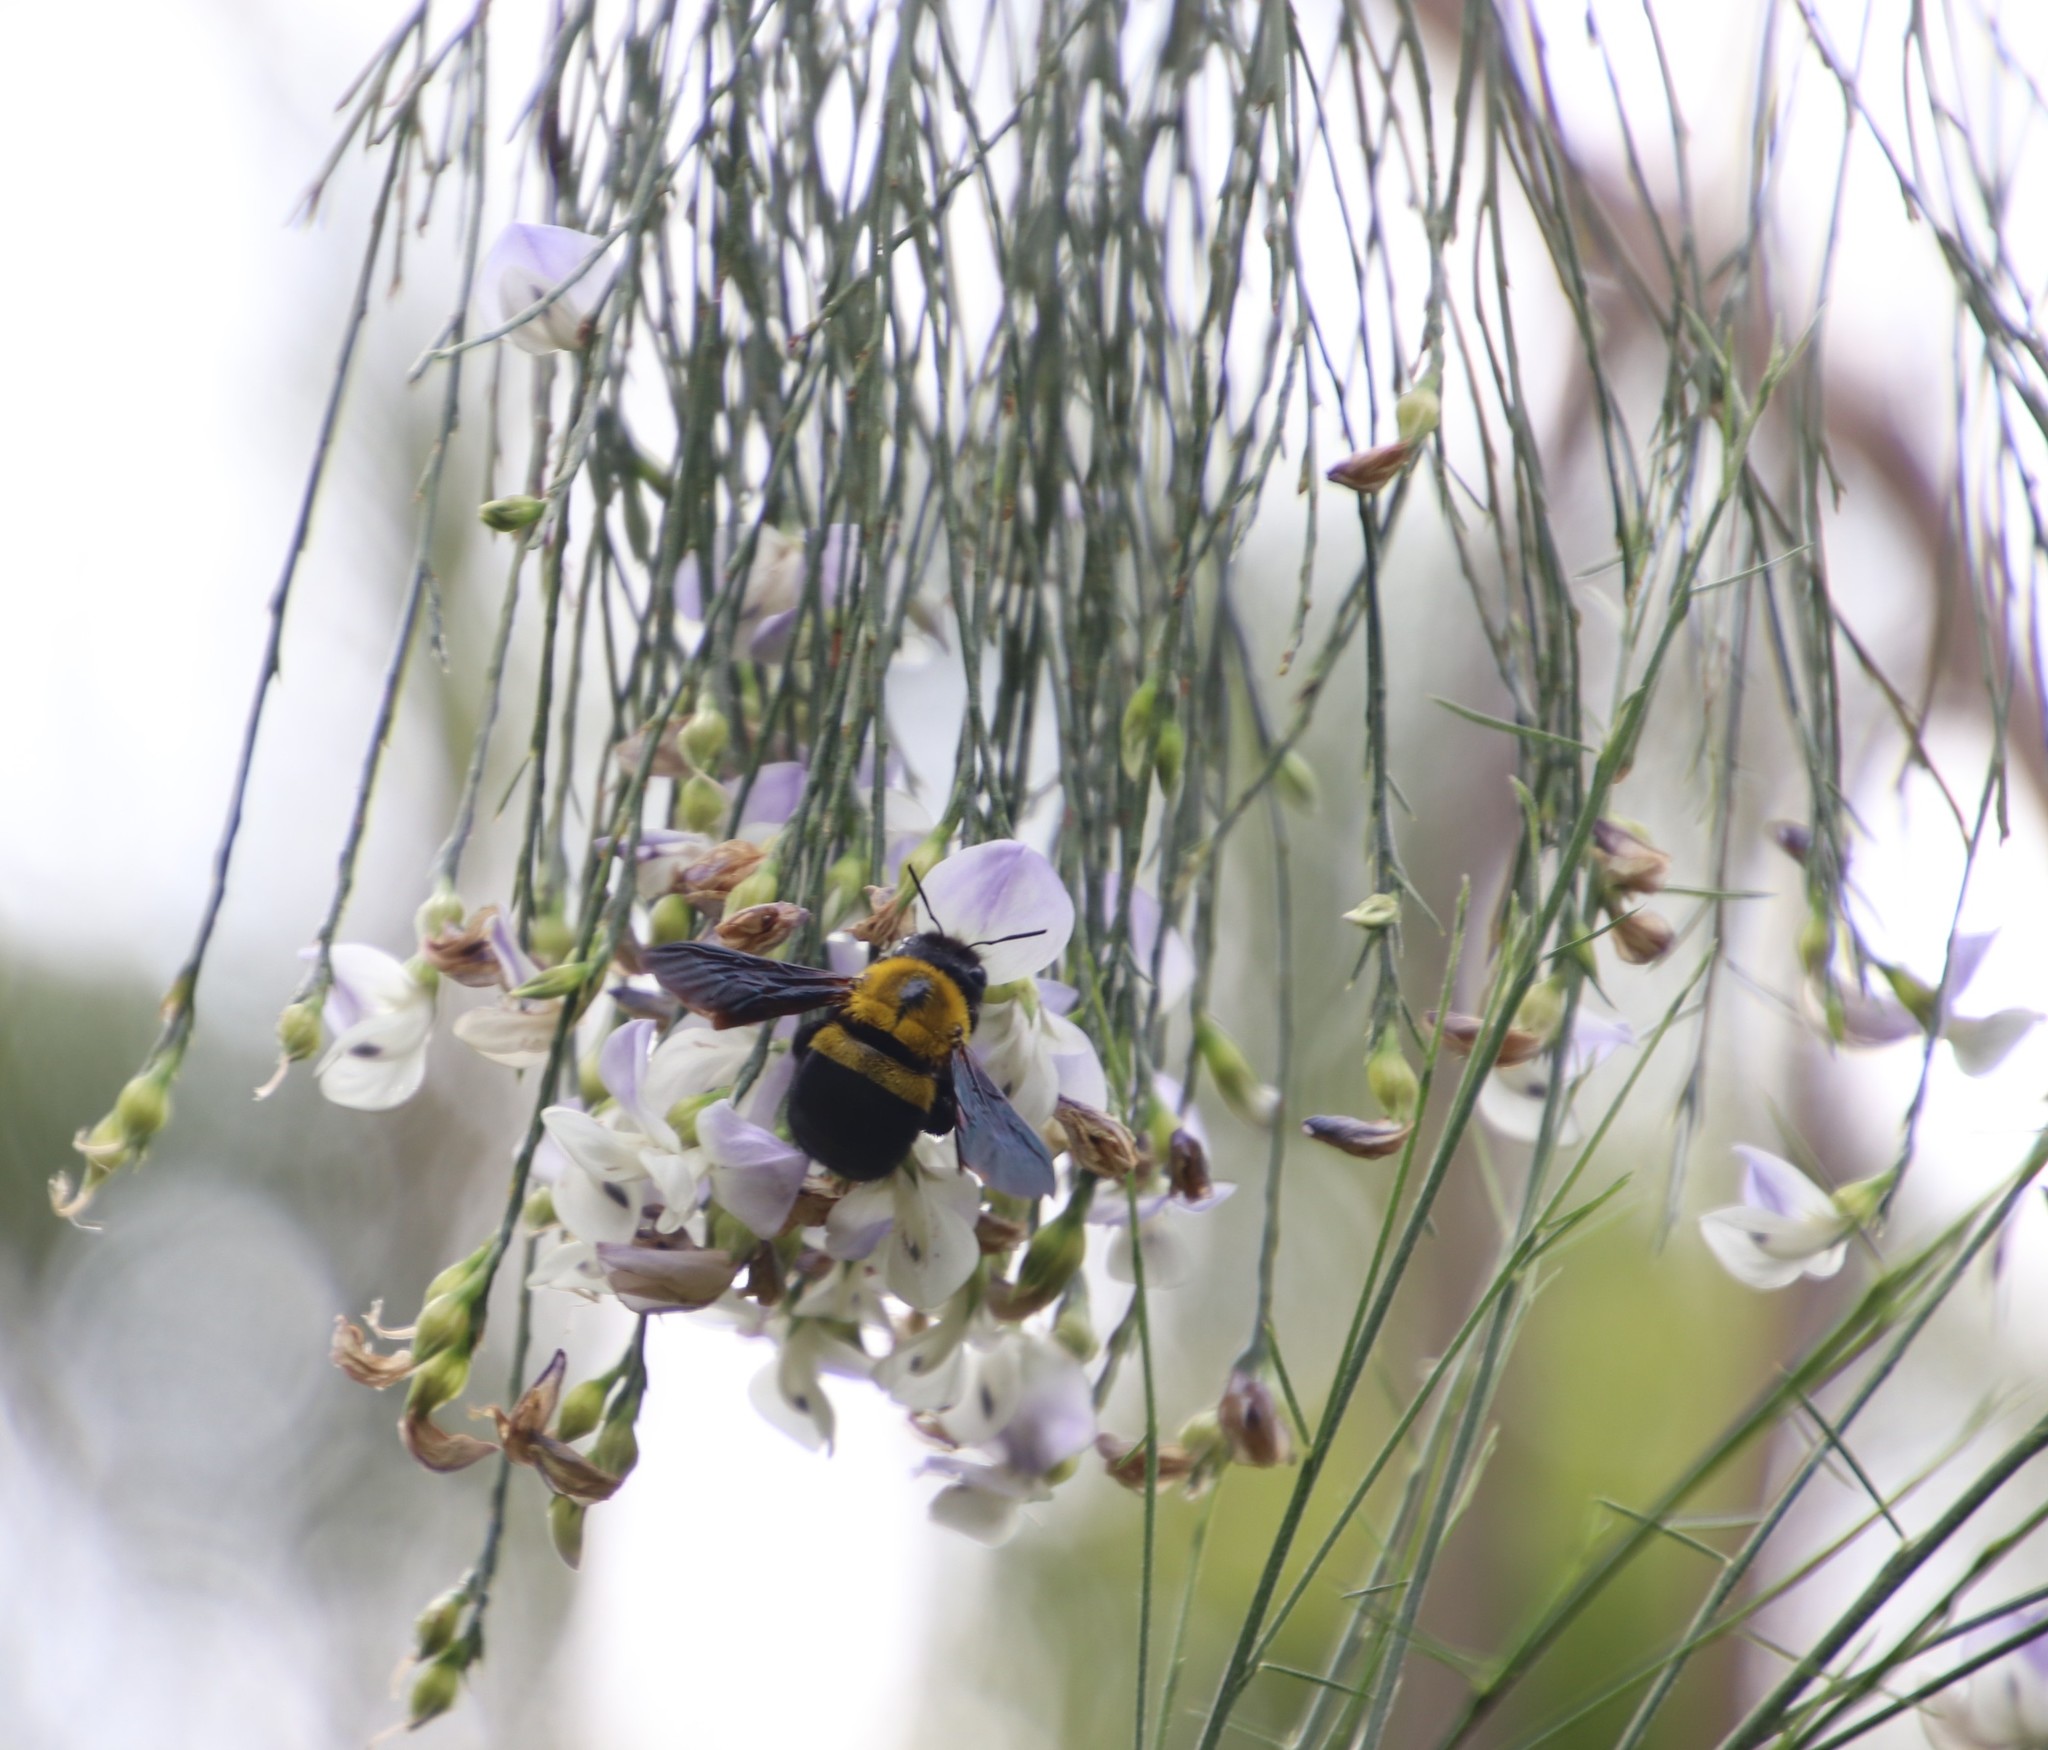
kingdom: Plantae
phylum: Tracheophyta
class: Magnoliopsida
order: Fabales
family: Fabaceae
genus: Psoralea
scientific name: Psoralea fleta
